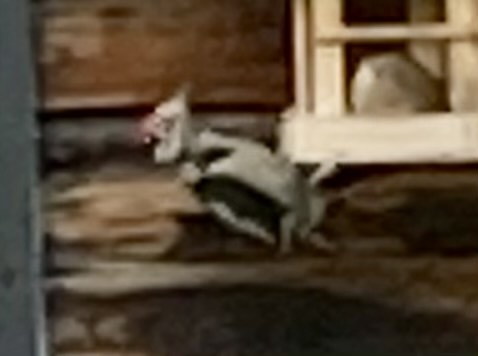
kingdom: Animalia
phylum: Chordata
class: Aves
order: Piciformes
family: Picidae
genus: Dendrocopos
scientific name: Dendrocopos major
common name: Great spotted woodpecker
